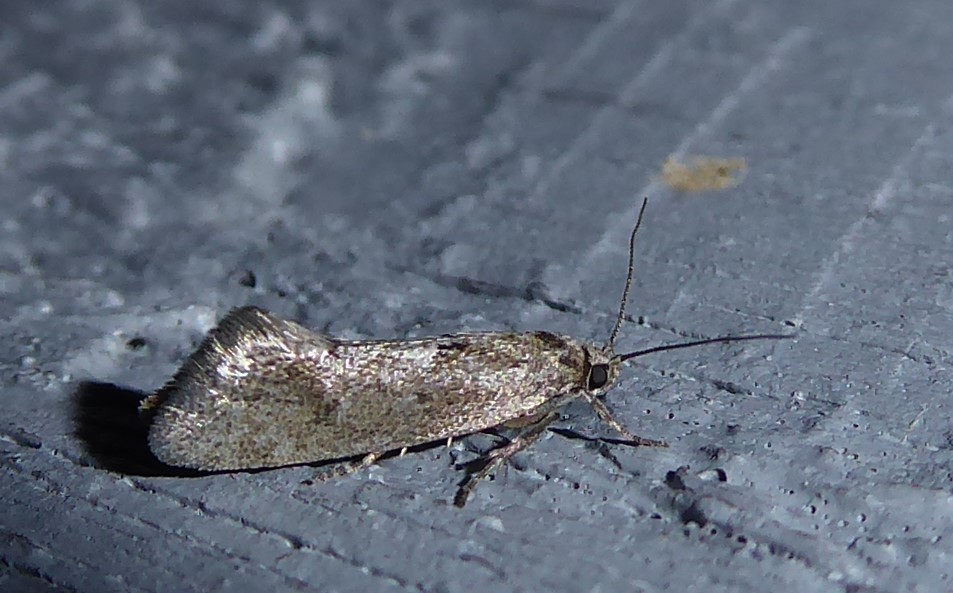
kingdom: Animalia
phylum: Arthropoda
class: Insecta
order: Lepidoptera
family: Oecophoridae
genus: Tingena
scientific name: Tingena brachyacma
